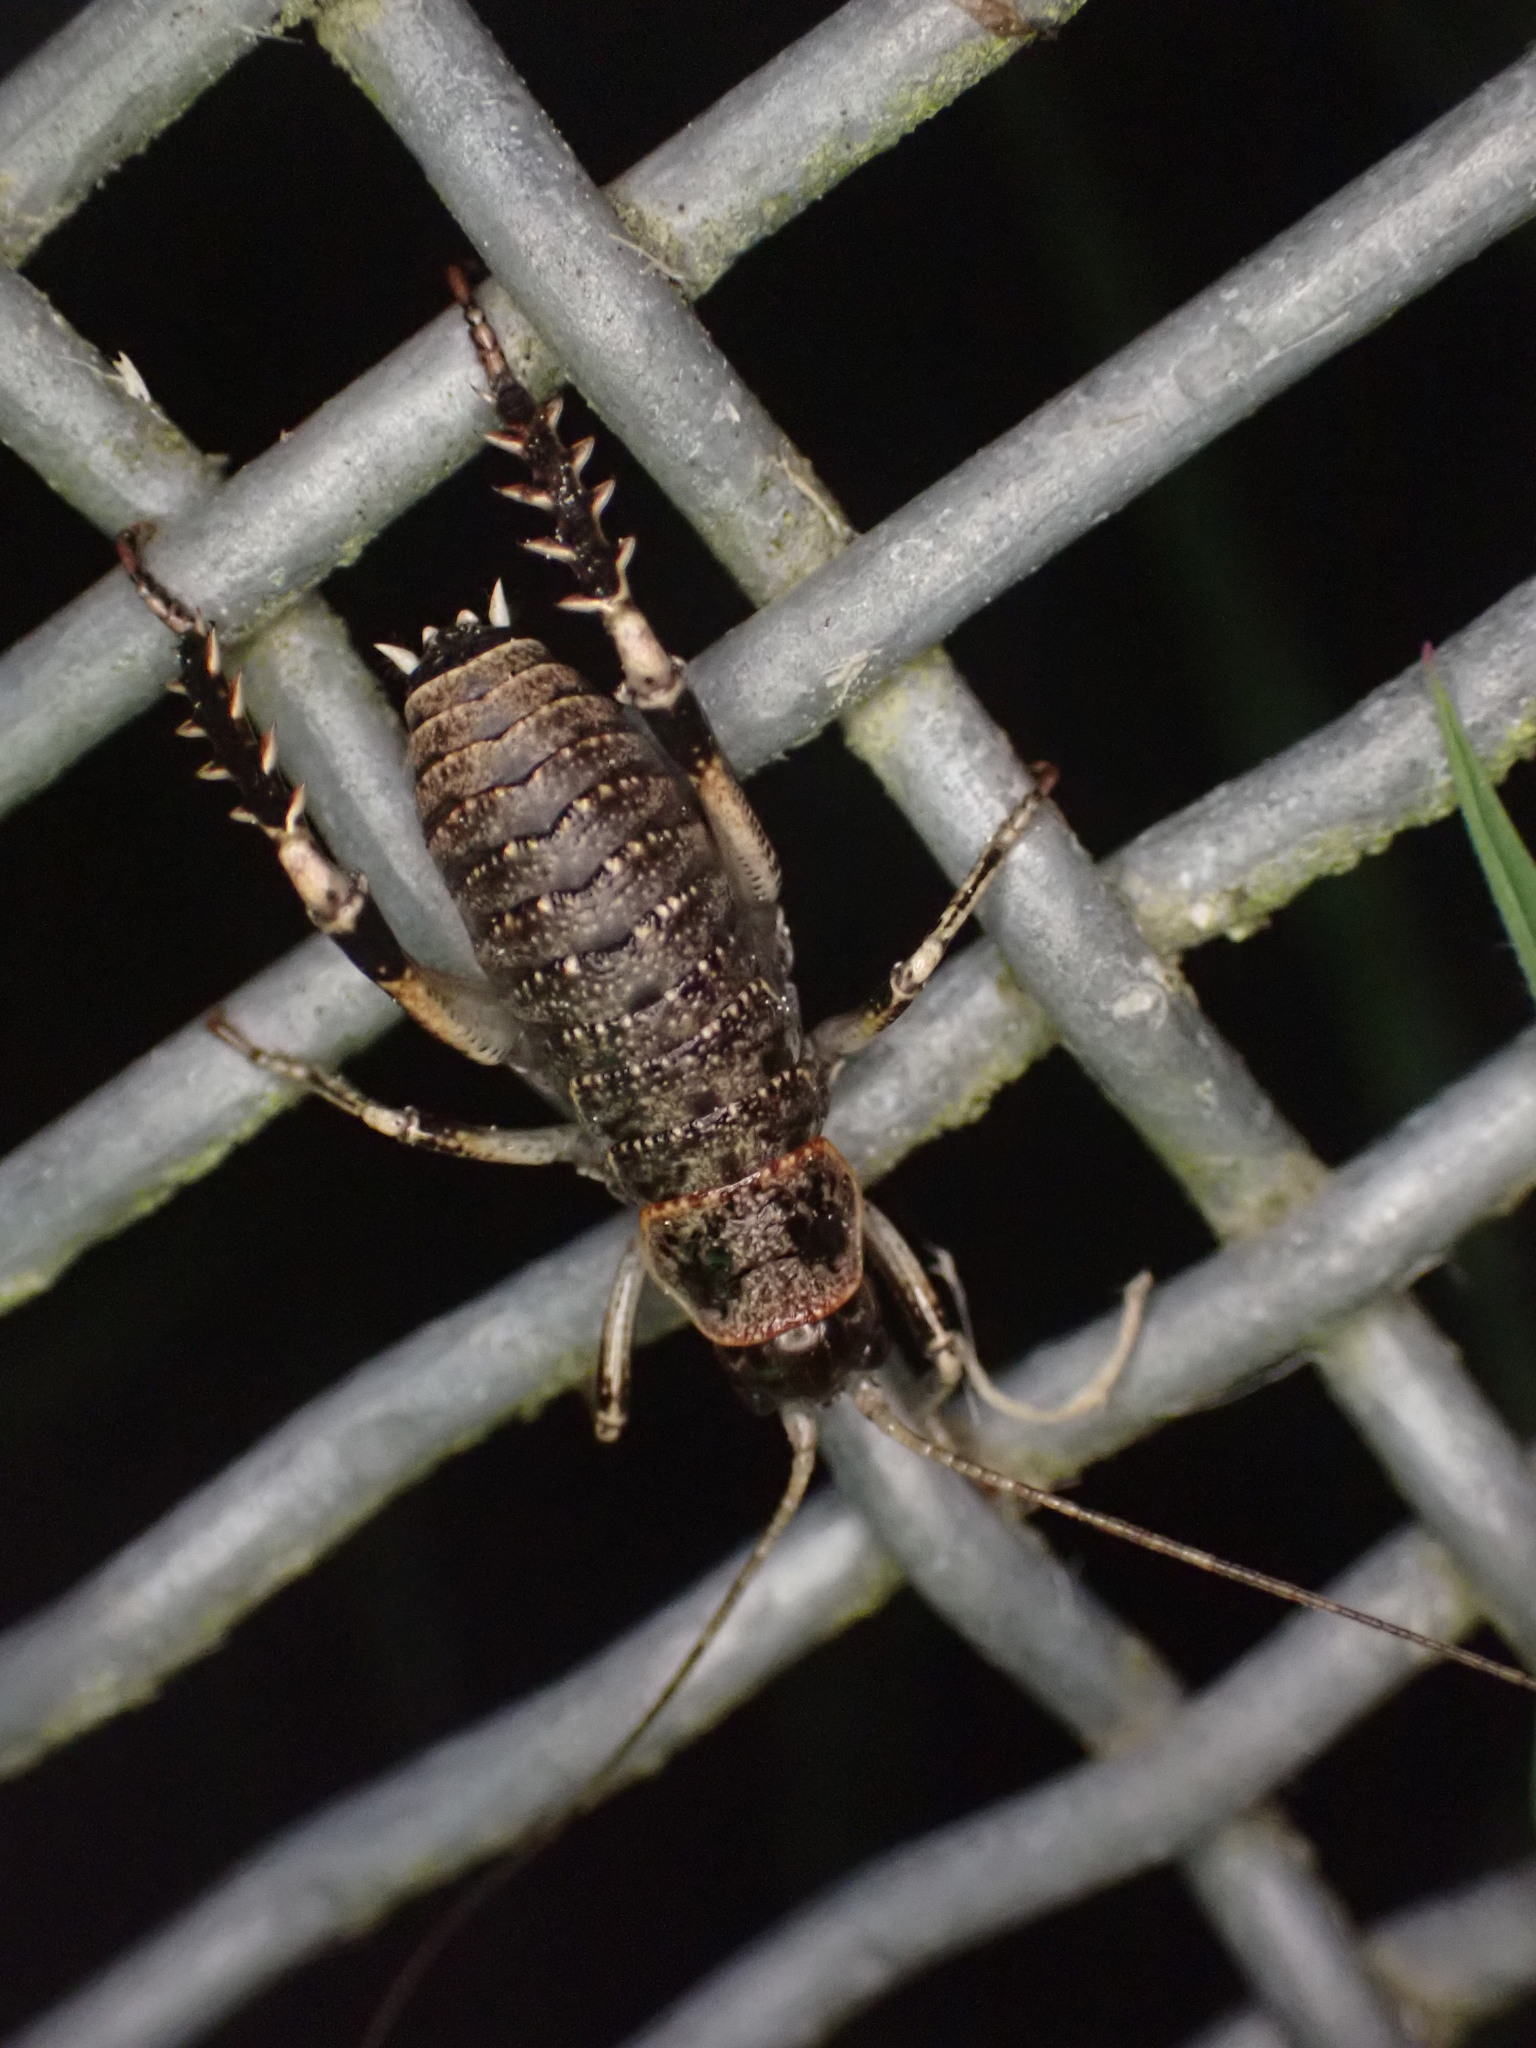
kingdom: Animalia
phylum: Arthropoda
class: Insecta
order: Orthoptera
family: Anostostomatidae
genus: Deinacrida
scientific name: Deinacrida rugosa
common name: Stephens island weta
